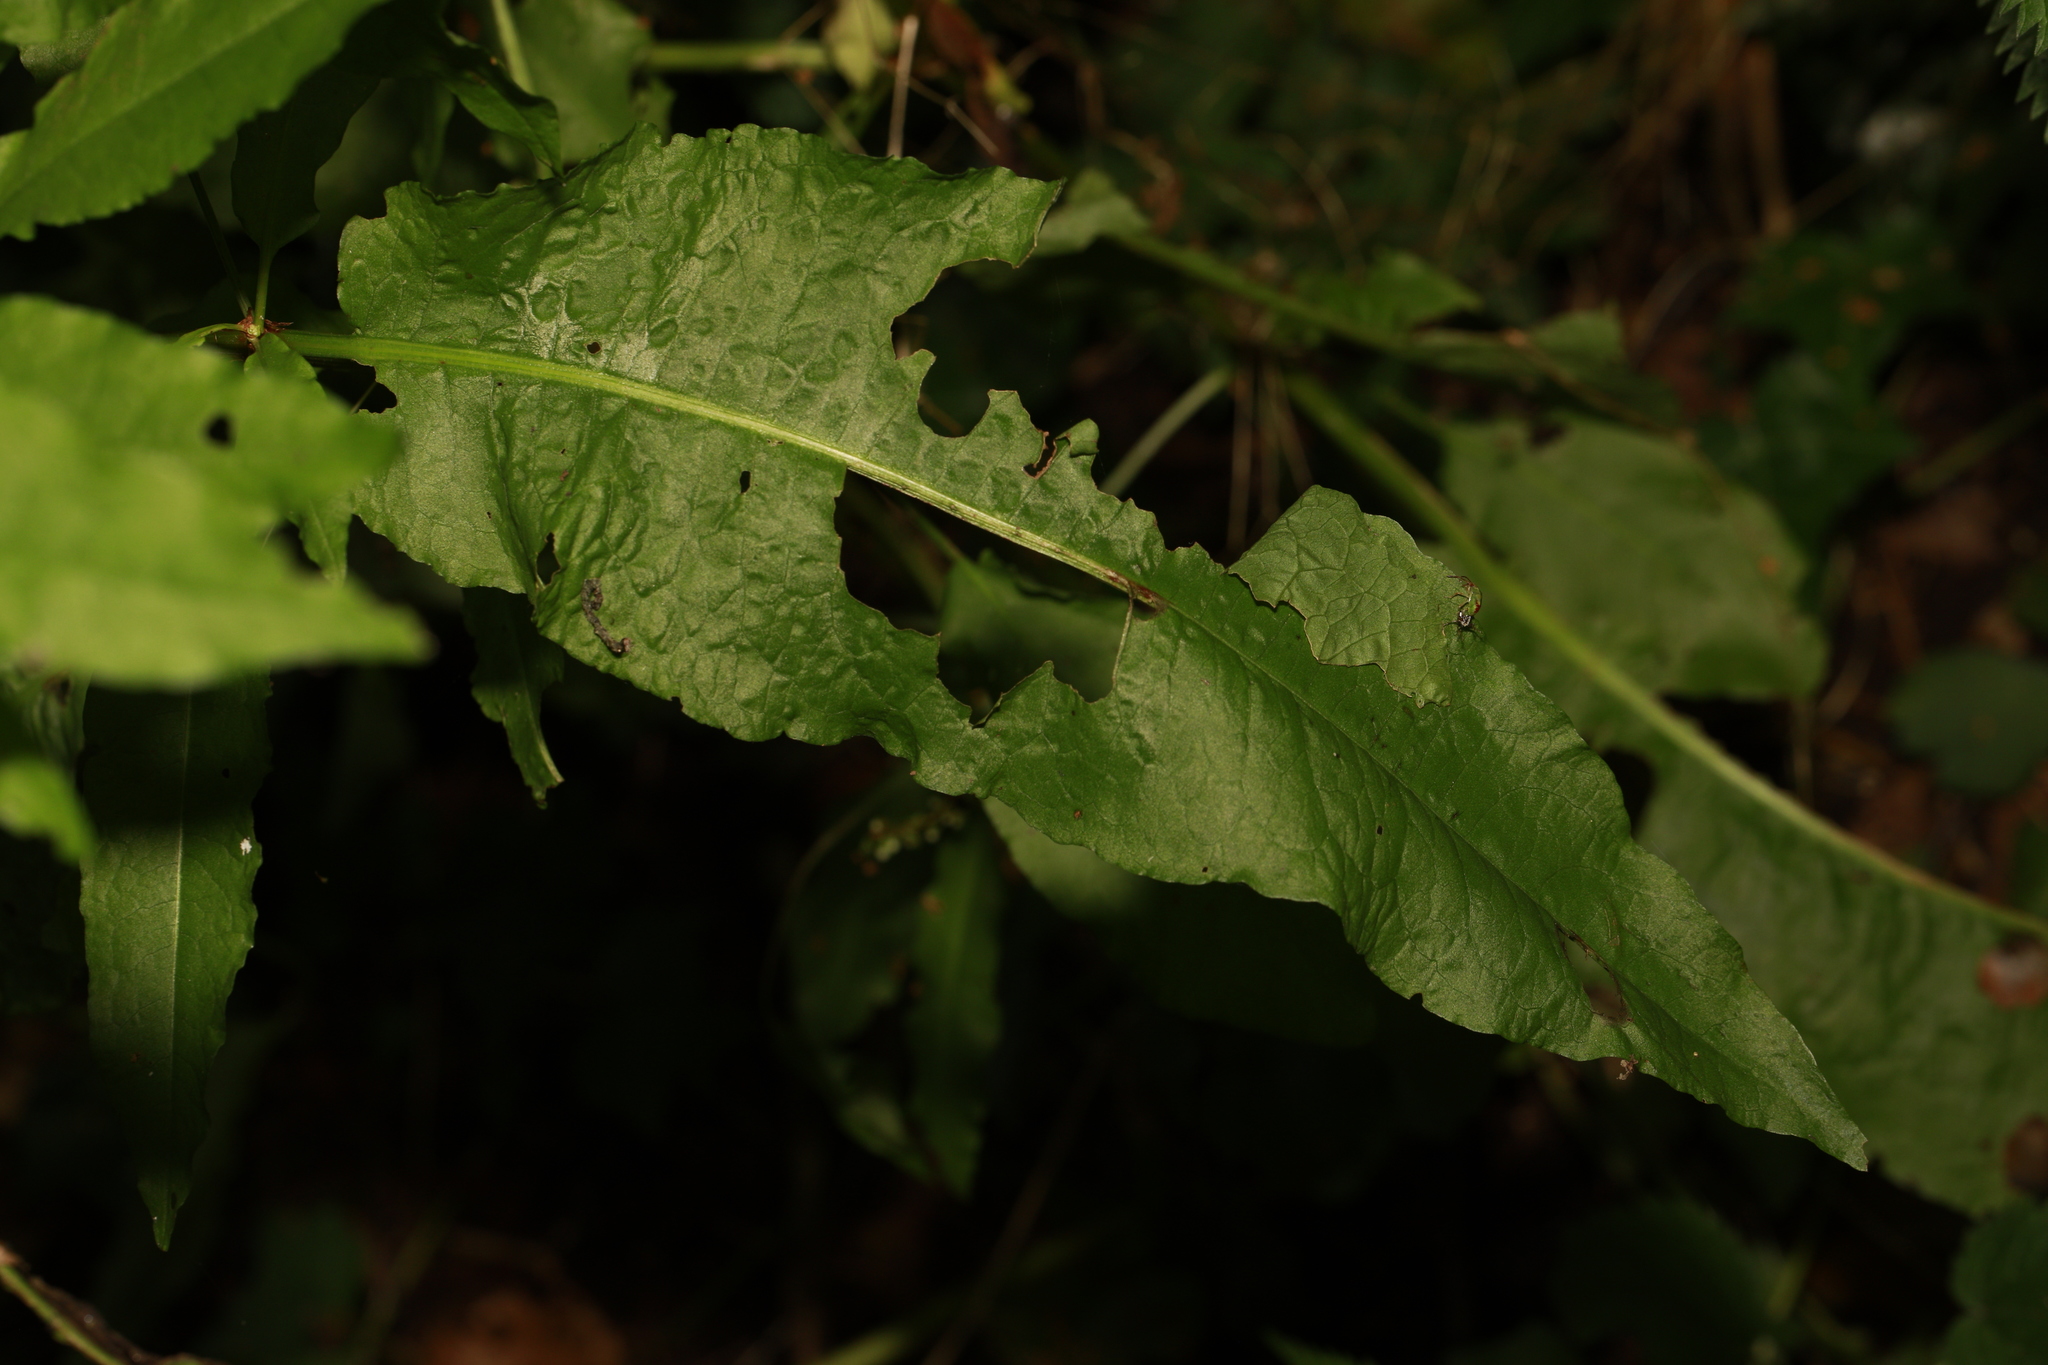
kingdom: Plantae
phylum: Tracheophyta
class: Magnoliopsida
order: Caryophyllales
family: Polygonaceae
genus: Rumex
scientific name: Rumex conglomeratus
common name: Clustered dock
